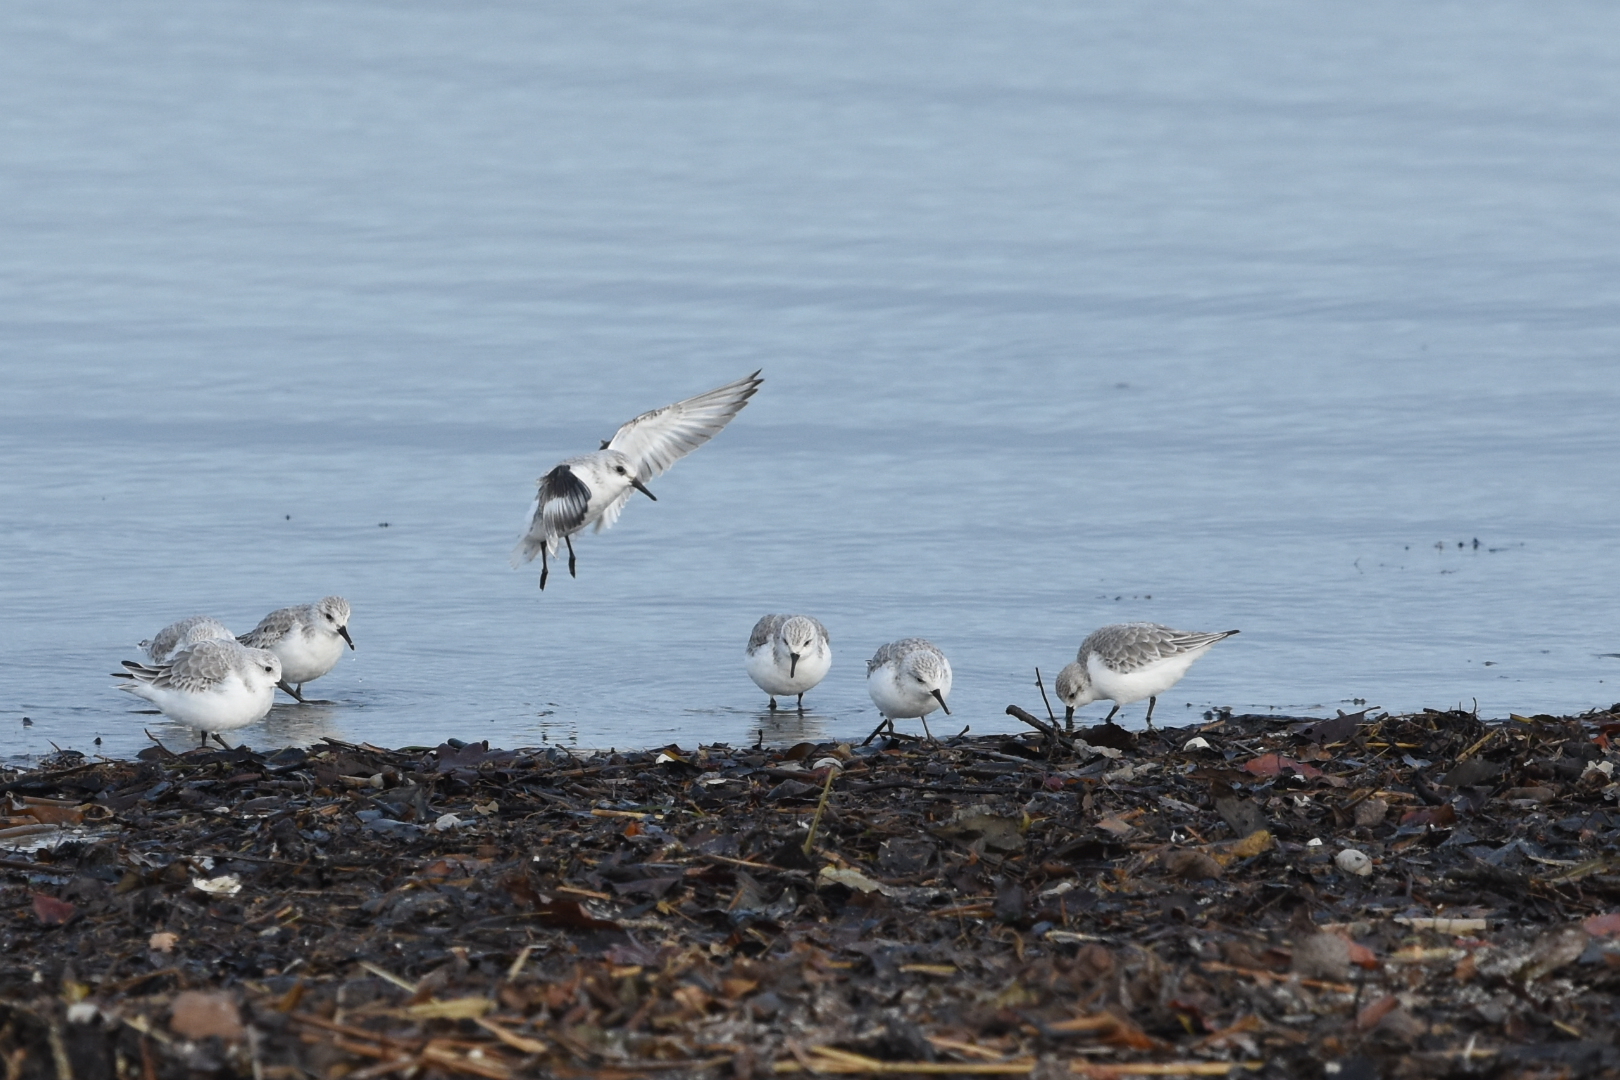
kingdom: Animalia
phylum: Chordata
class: Aves
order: Charadriiformes
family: Scolopacidae
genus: Calidris
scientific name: Calidris alba
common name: Sanderling
